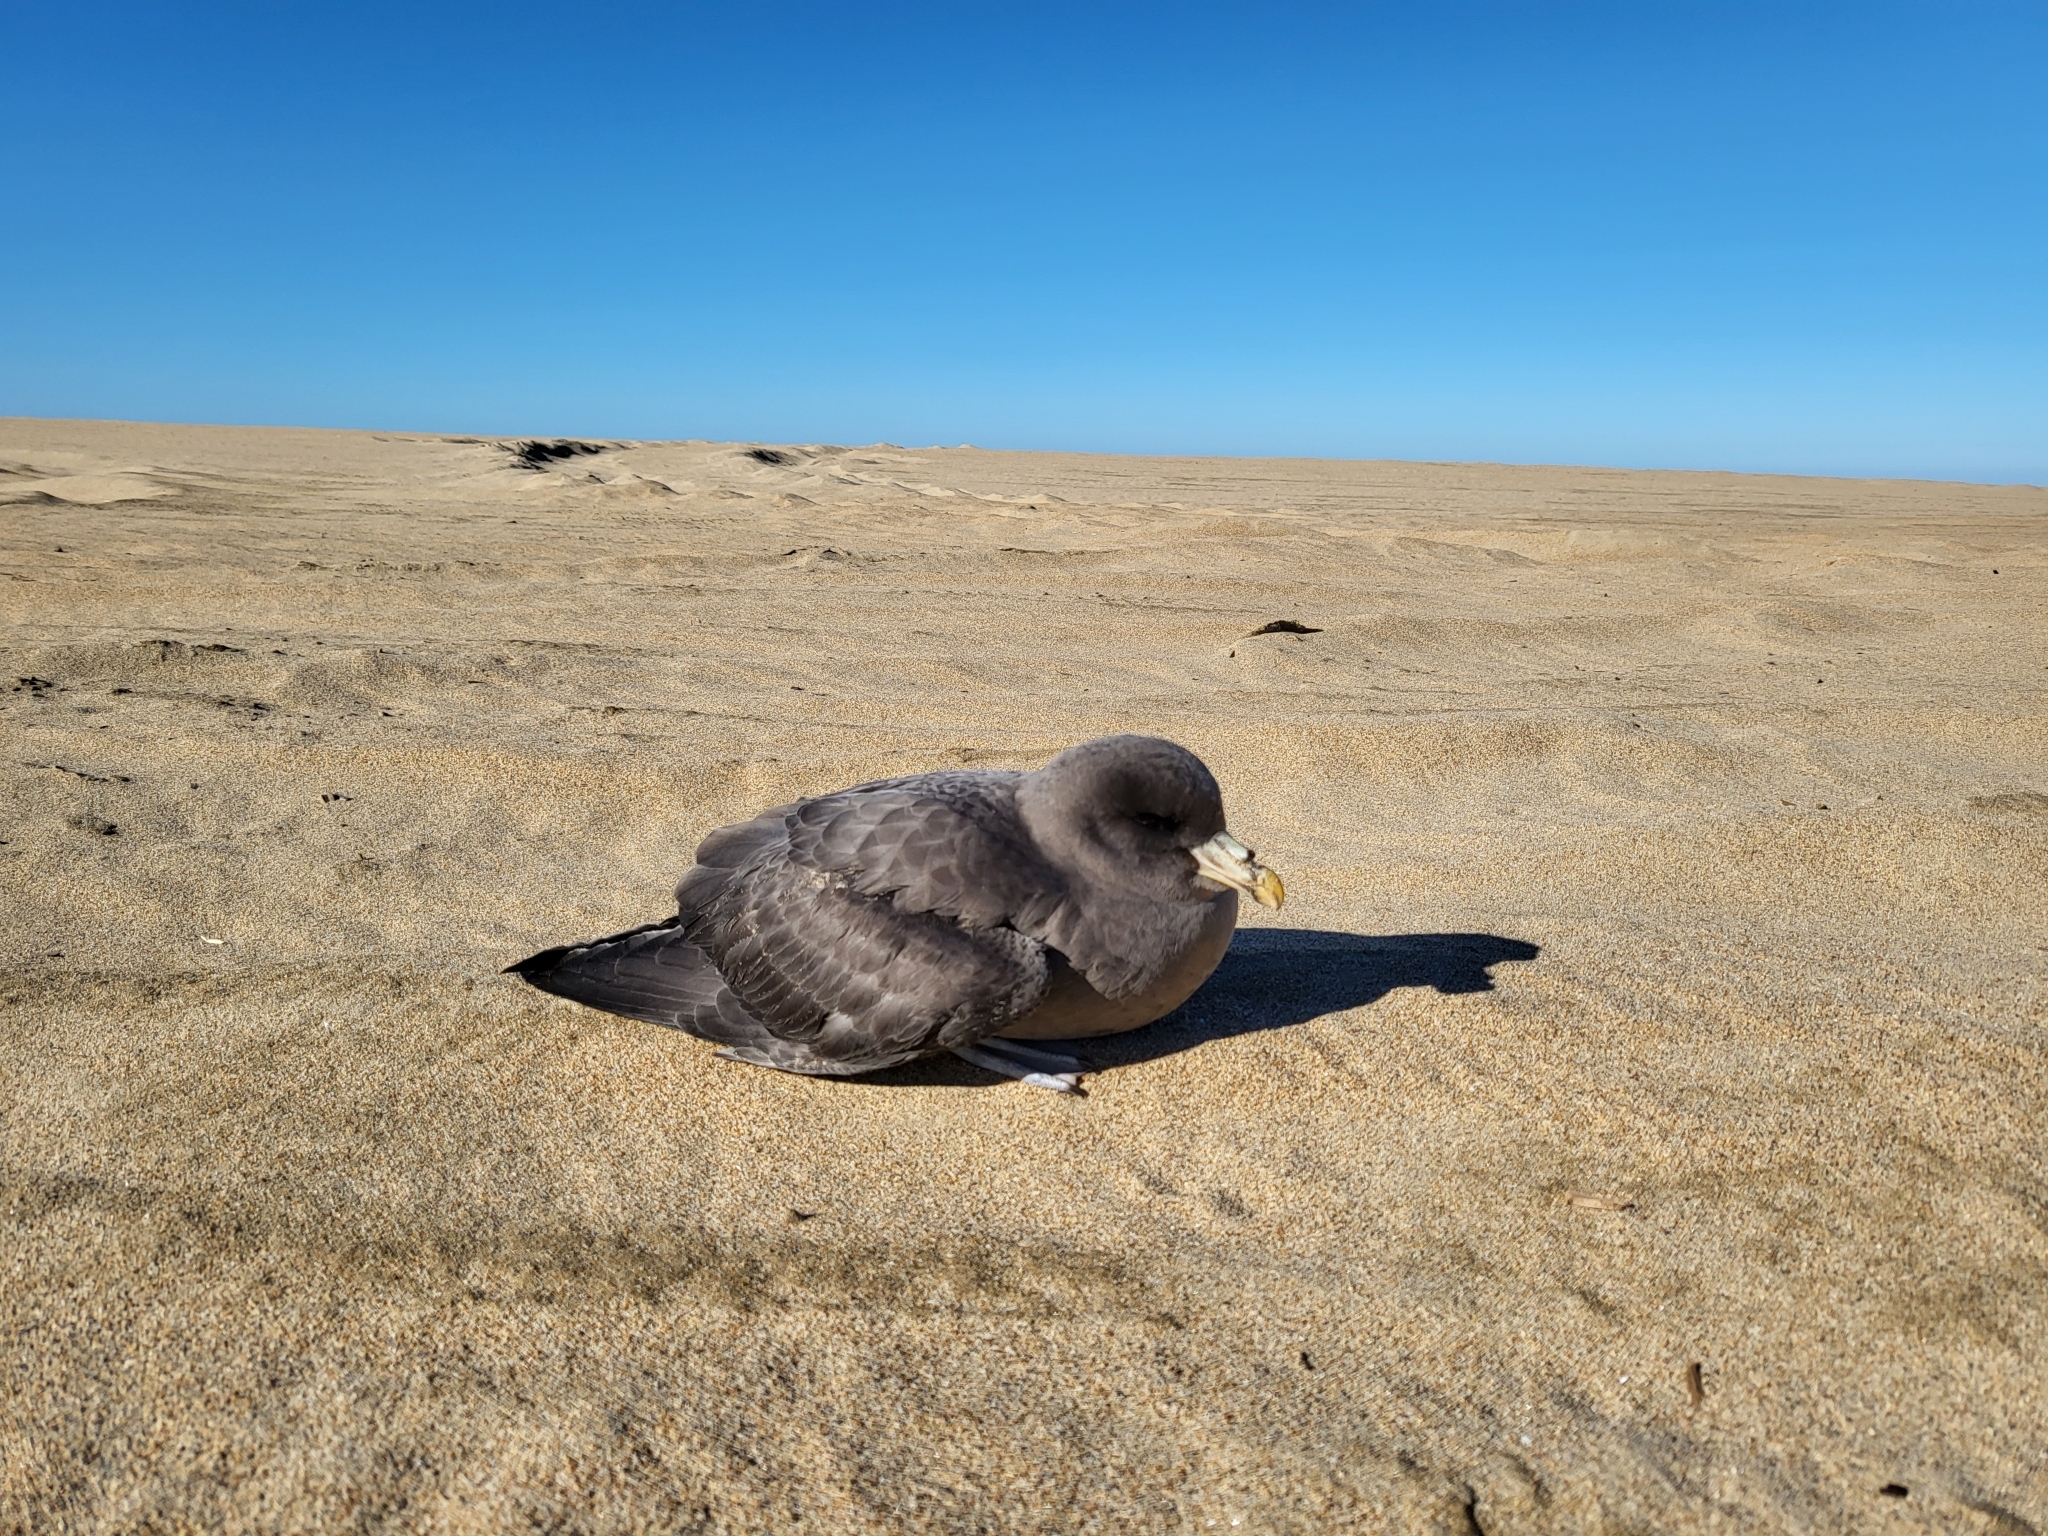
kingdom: Animalia
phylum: Chordata
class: Aves
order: Procellariiformes
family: Procellariidae
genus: Fulmarus
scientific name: Fulmarus glacialis
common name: Northern fulmar
